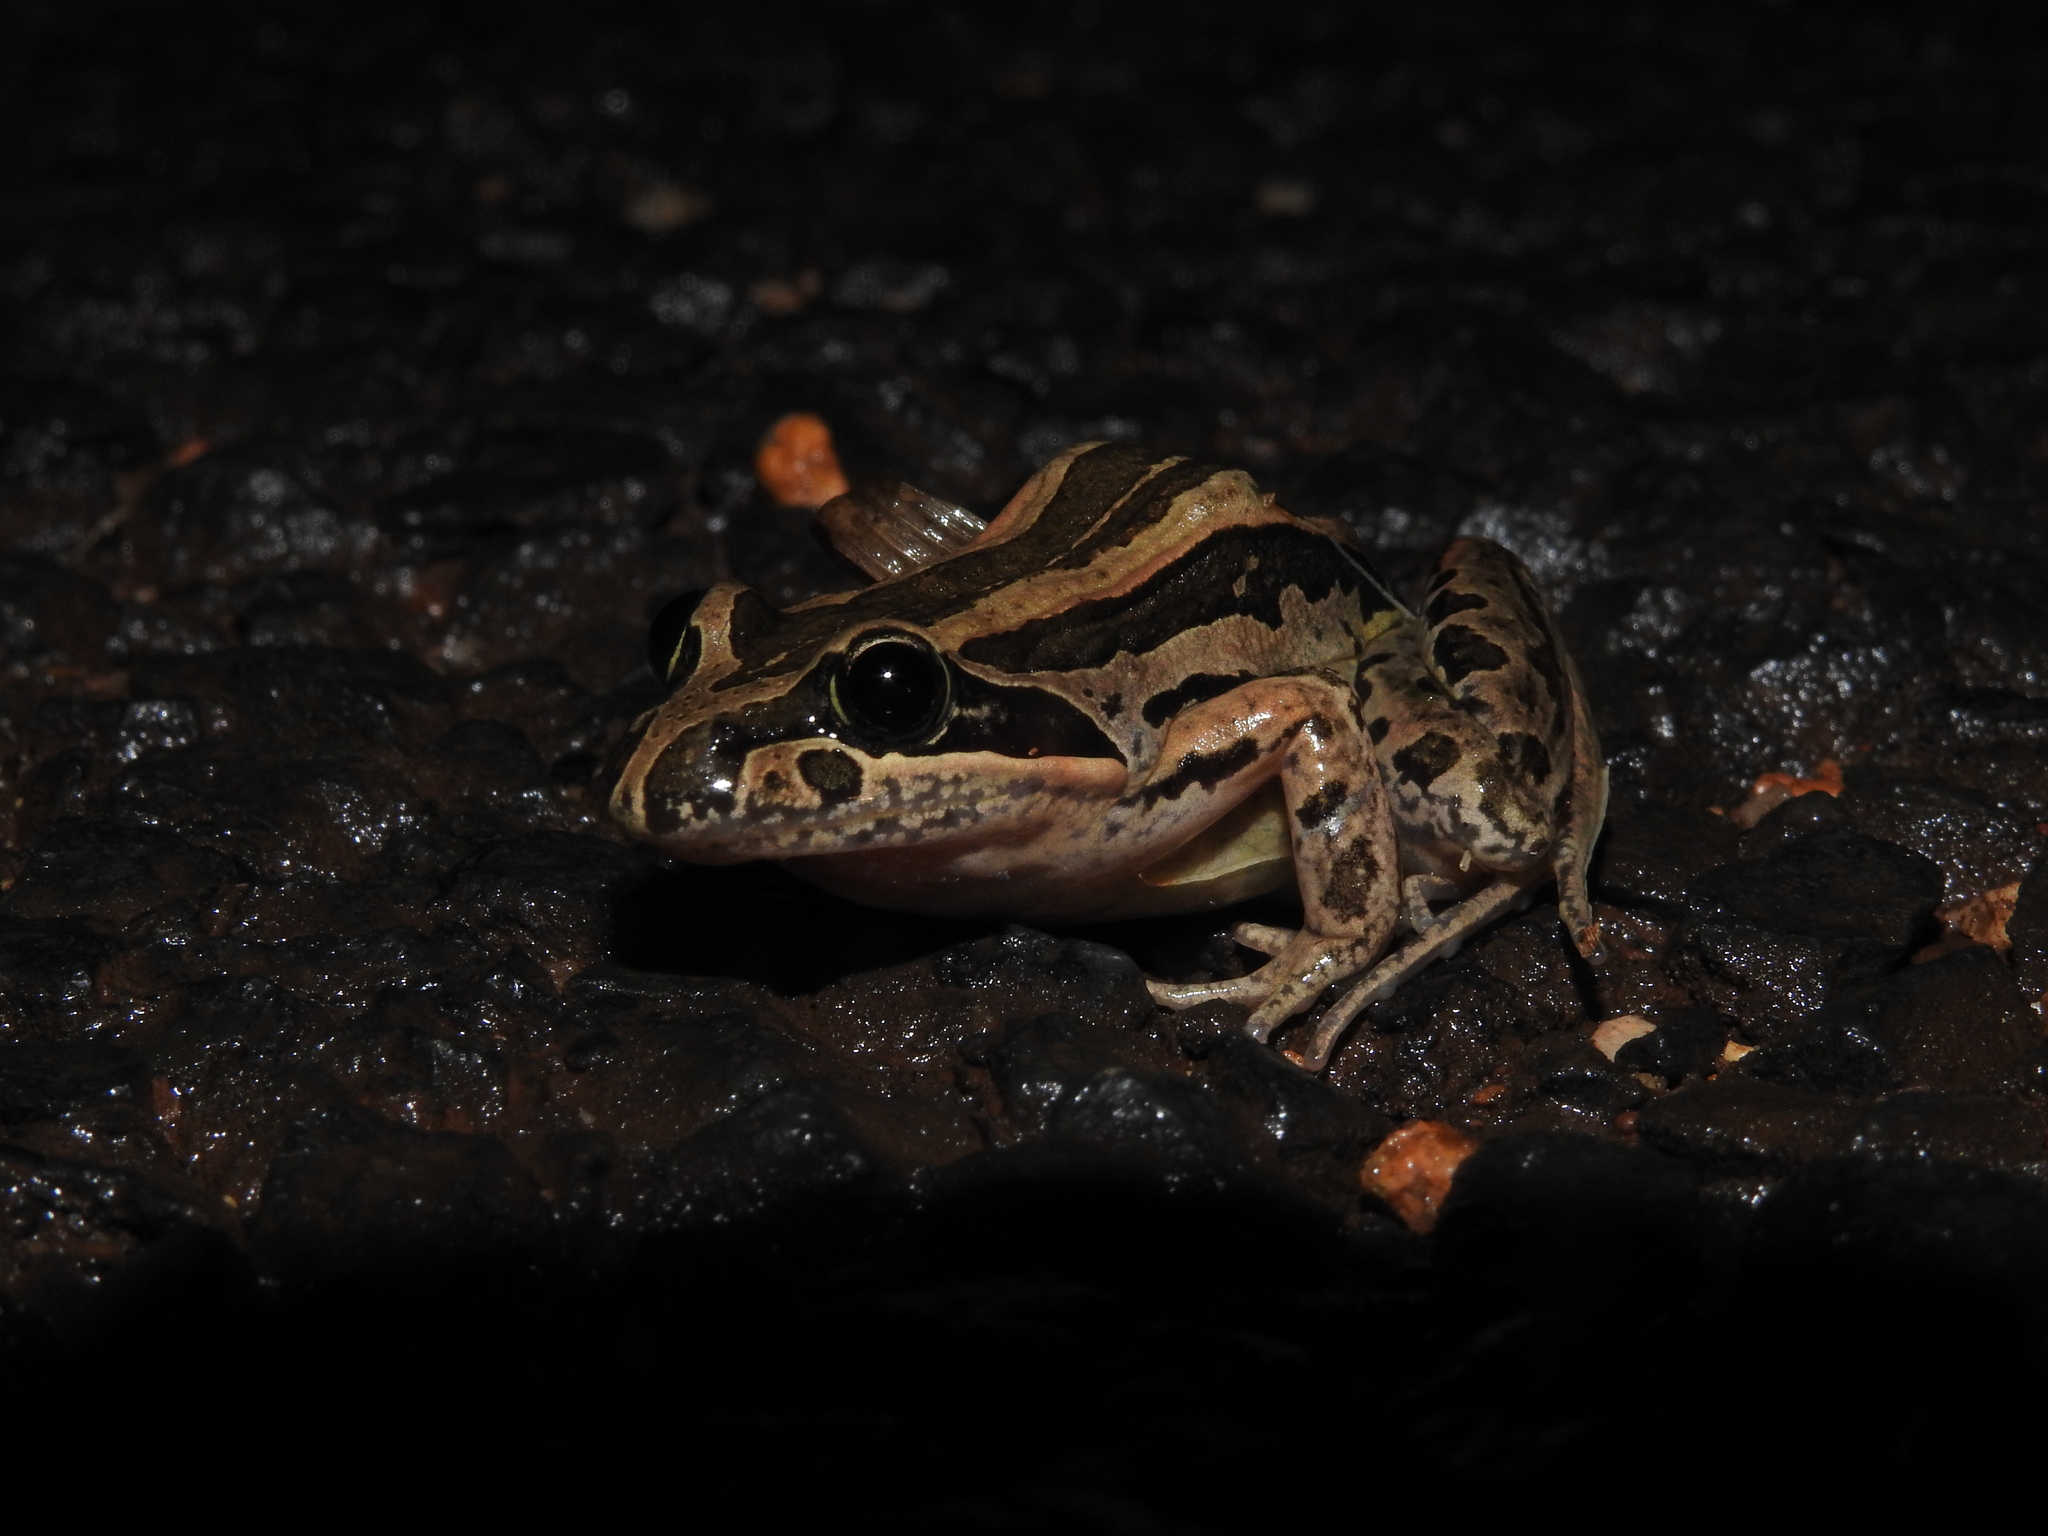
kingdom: Animalia
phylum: Chordata
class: Amphibia
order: Anura
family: Limnodynastidae
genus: Limnodynastes
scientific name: Limnodynastes peronii
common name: Brown frog
